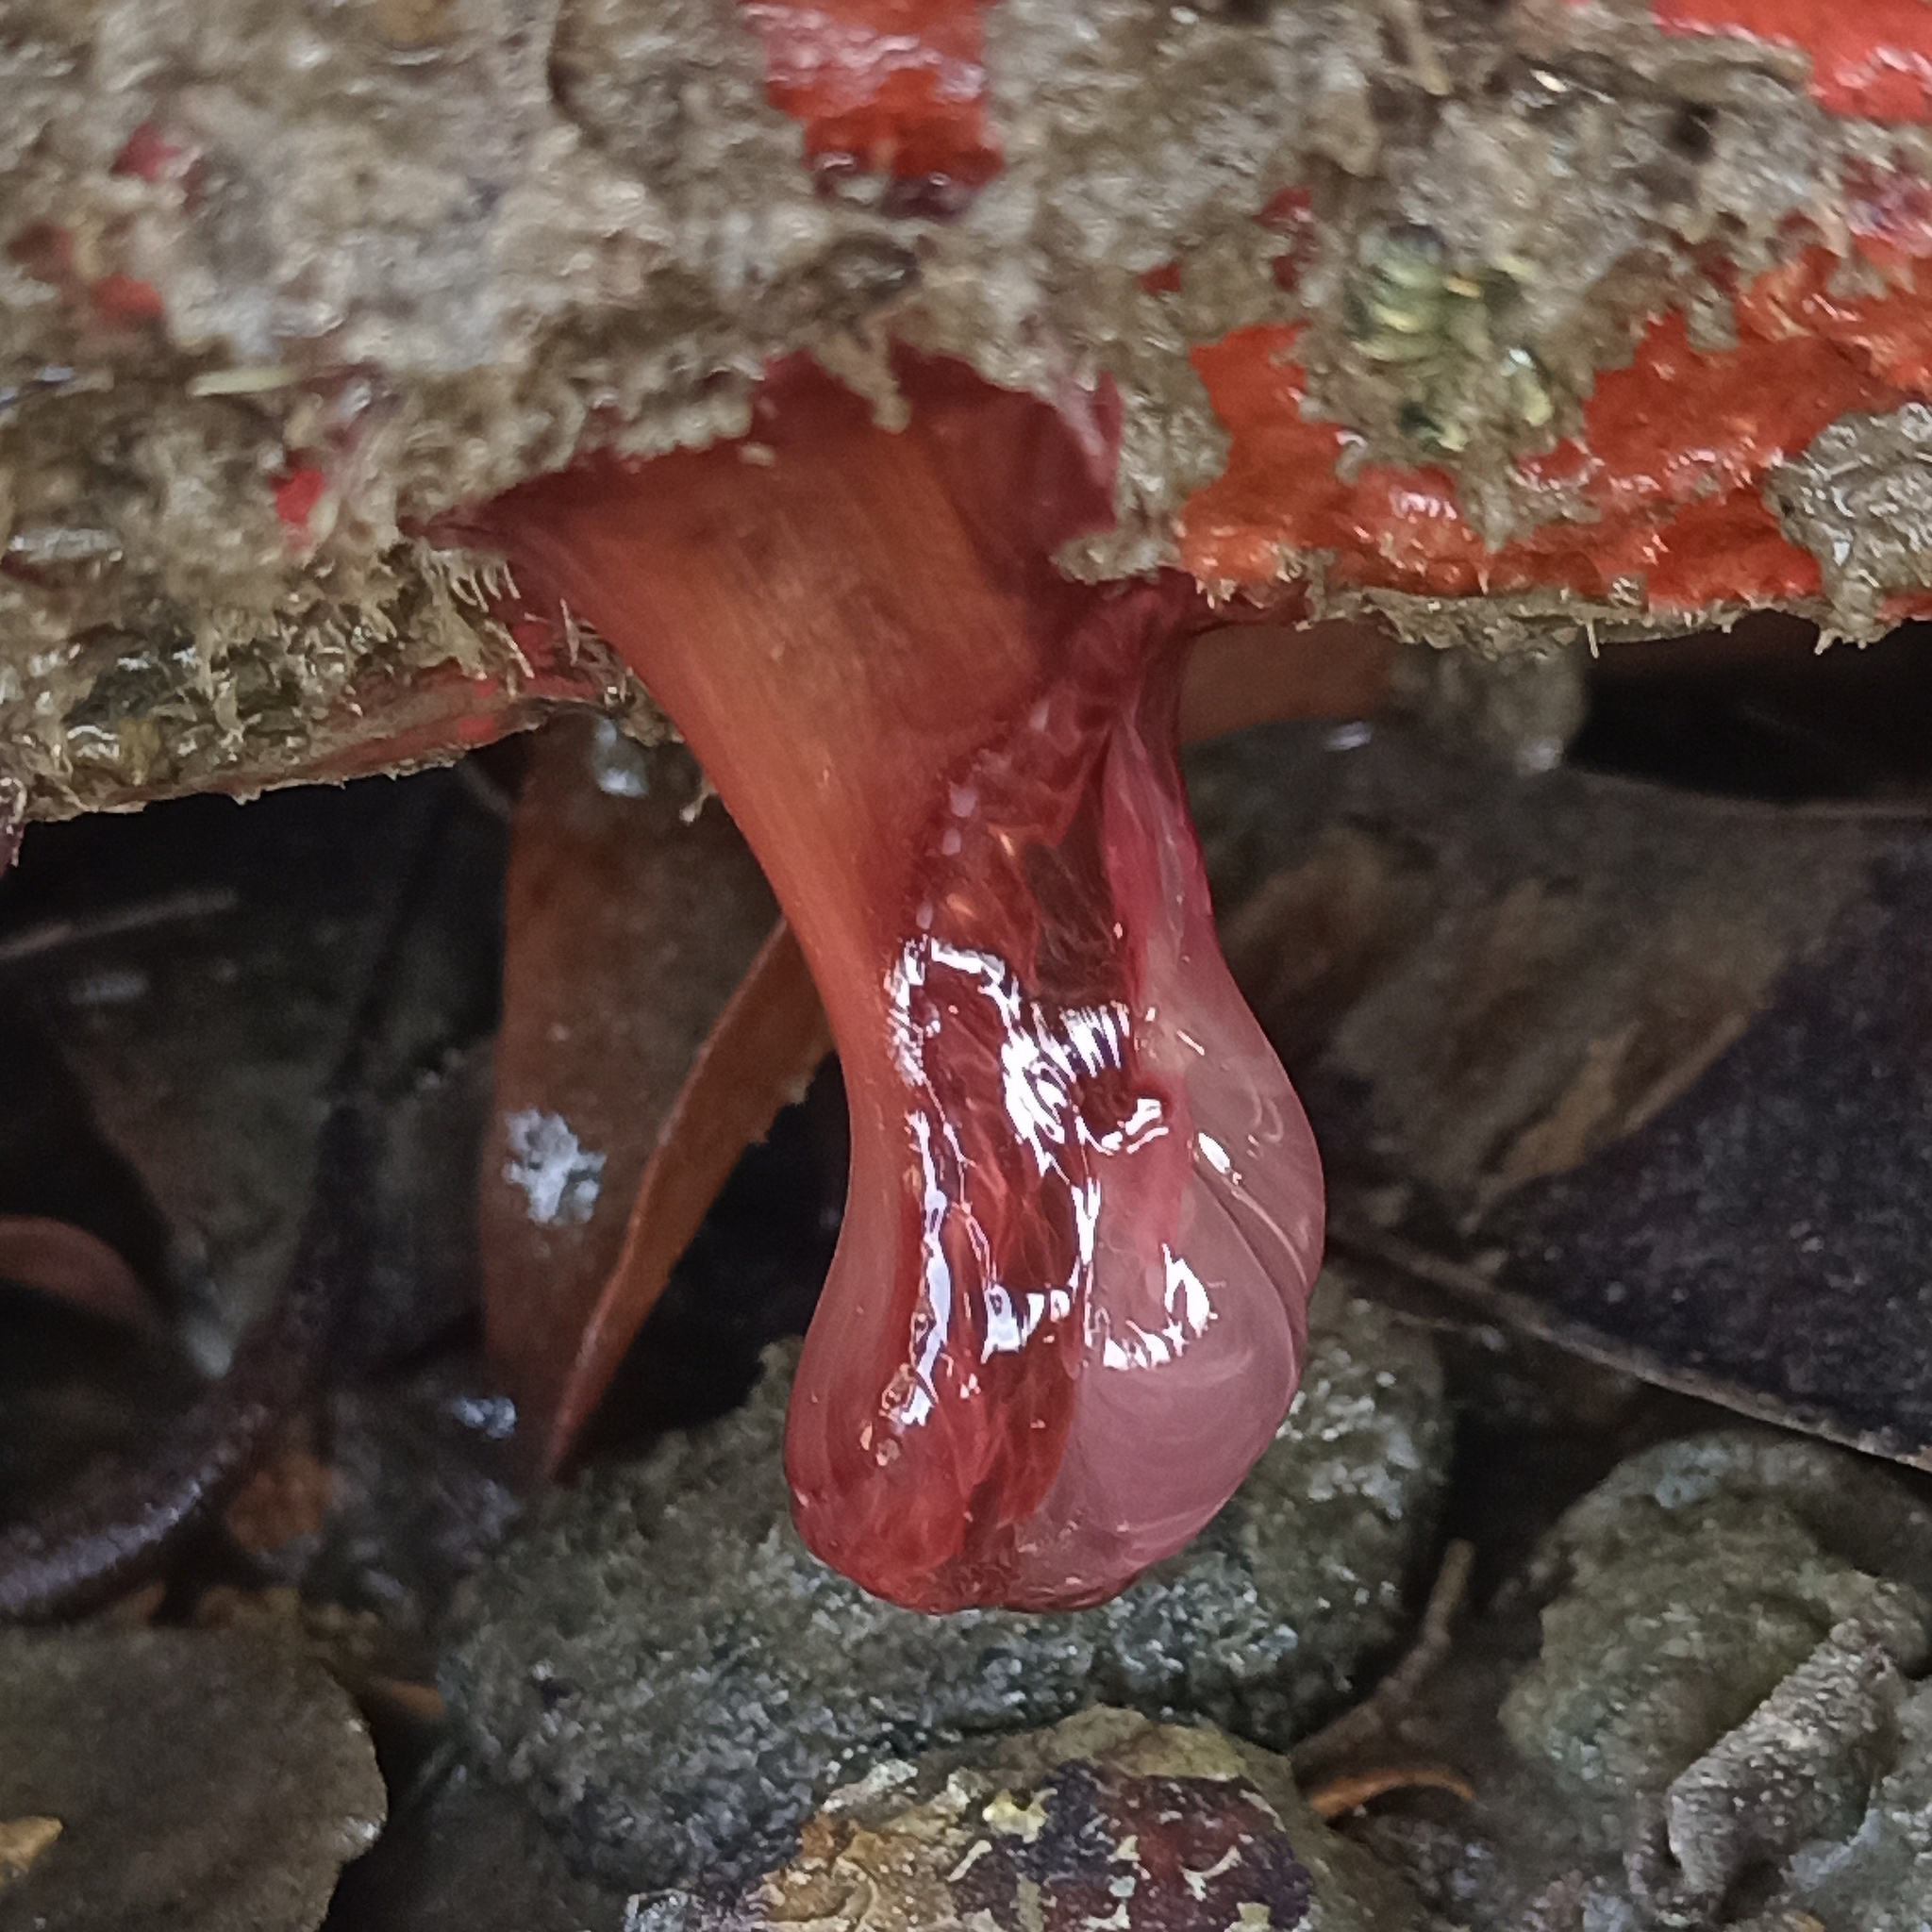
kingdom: Animalia
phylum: Cnidaria
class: Anthozoa
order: Actiniaria
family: Actiniidae
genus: Anemonia
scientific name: Anemonia sargassensis
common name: Sargassum anemone
